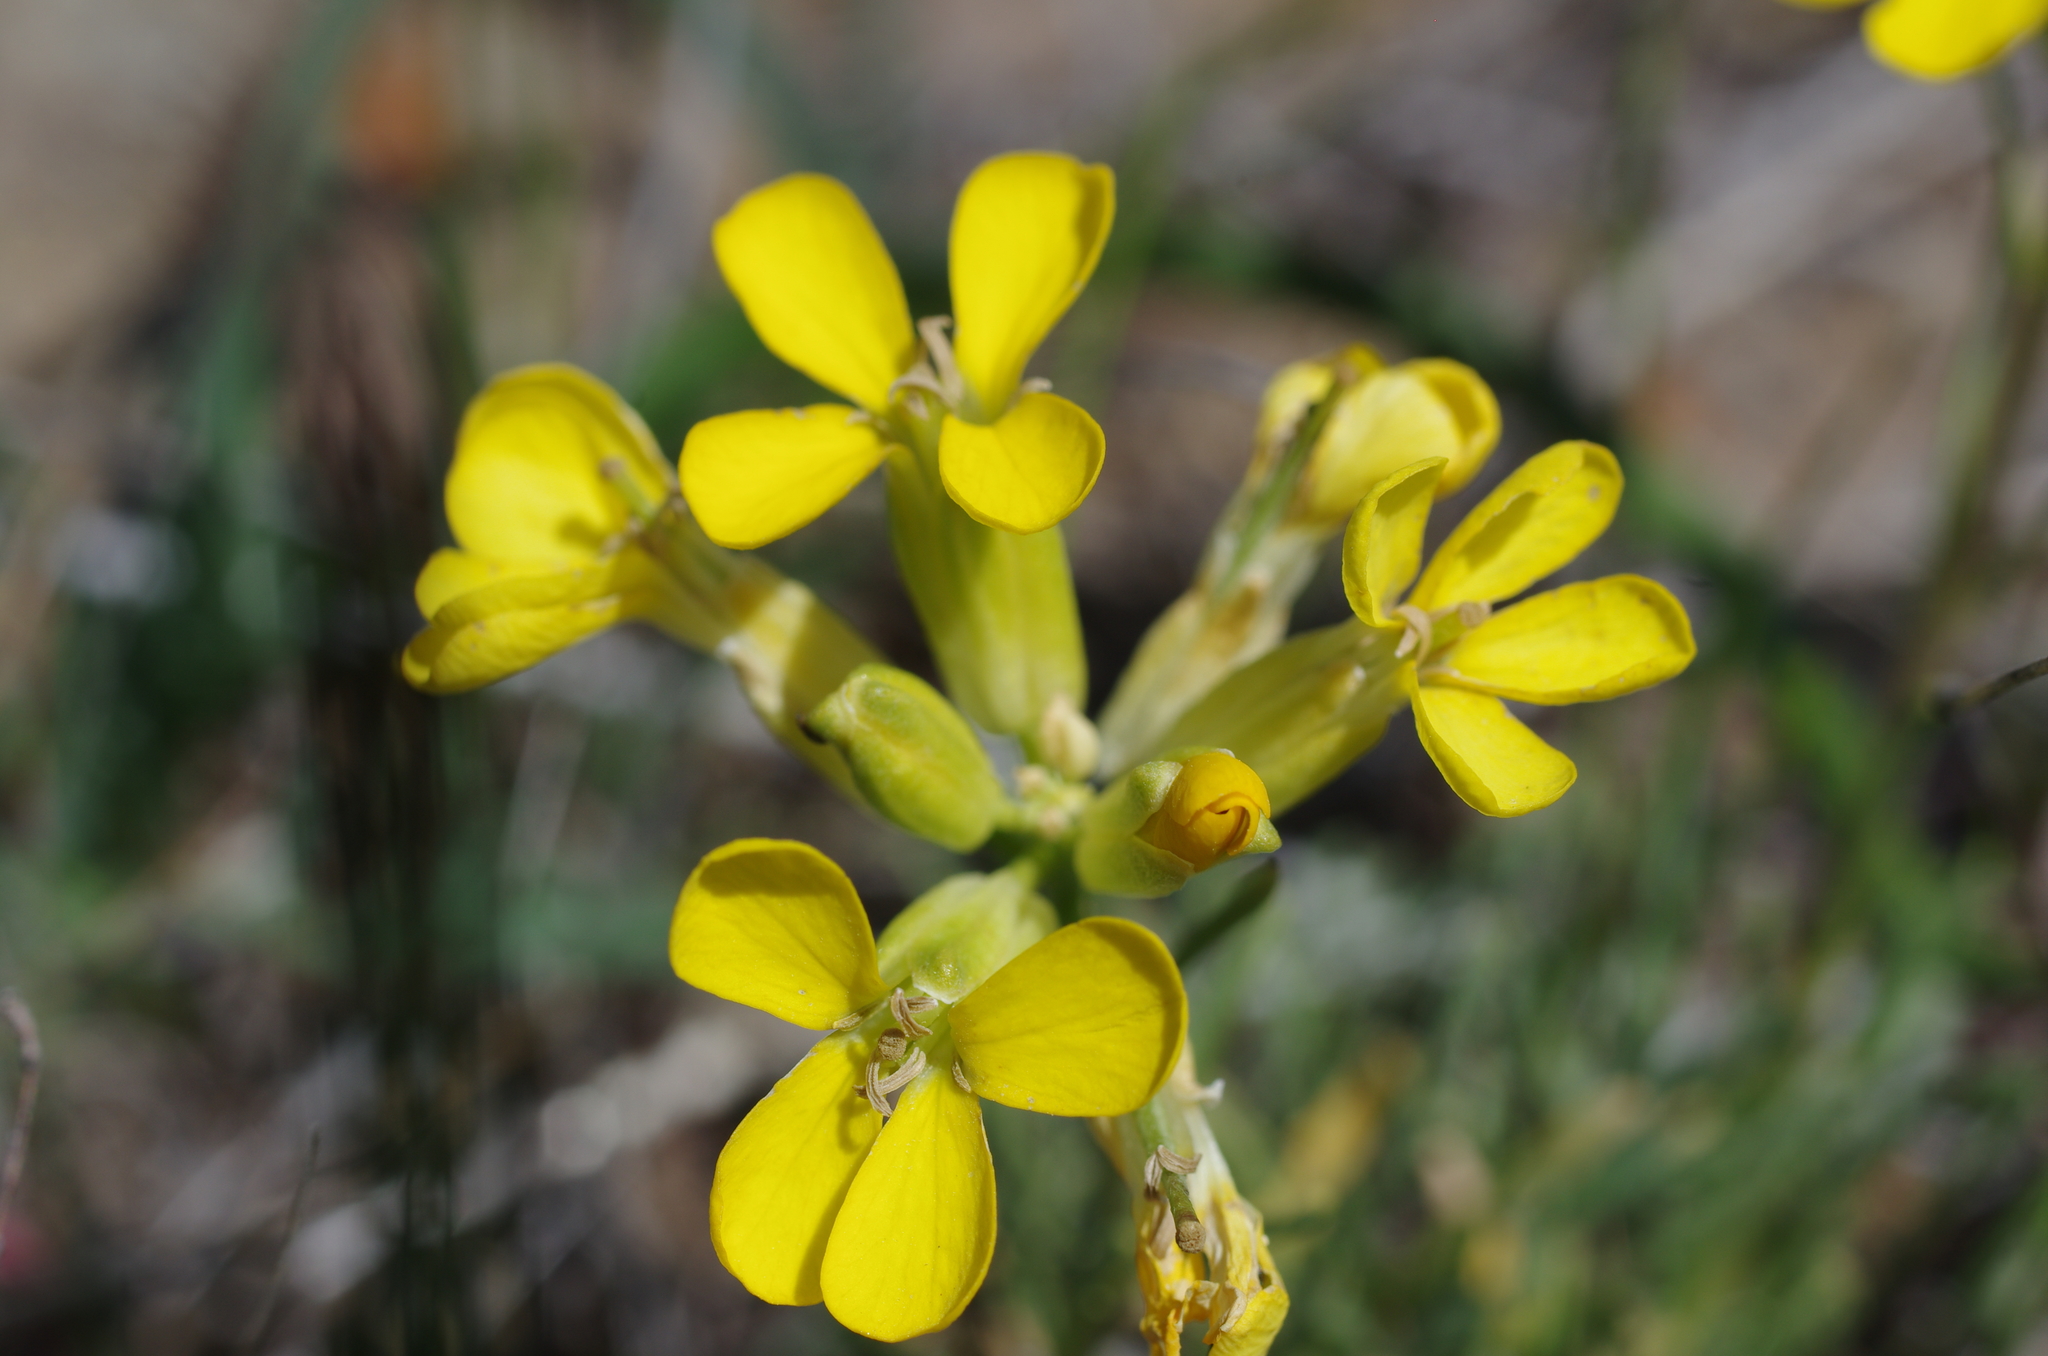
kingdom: Plantae
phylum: Tracheophyta
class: Magnoliopsida
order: Brassicales
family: Brassicaceae
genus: Erysimum
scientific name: Erysimum franciscanum
